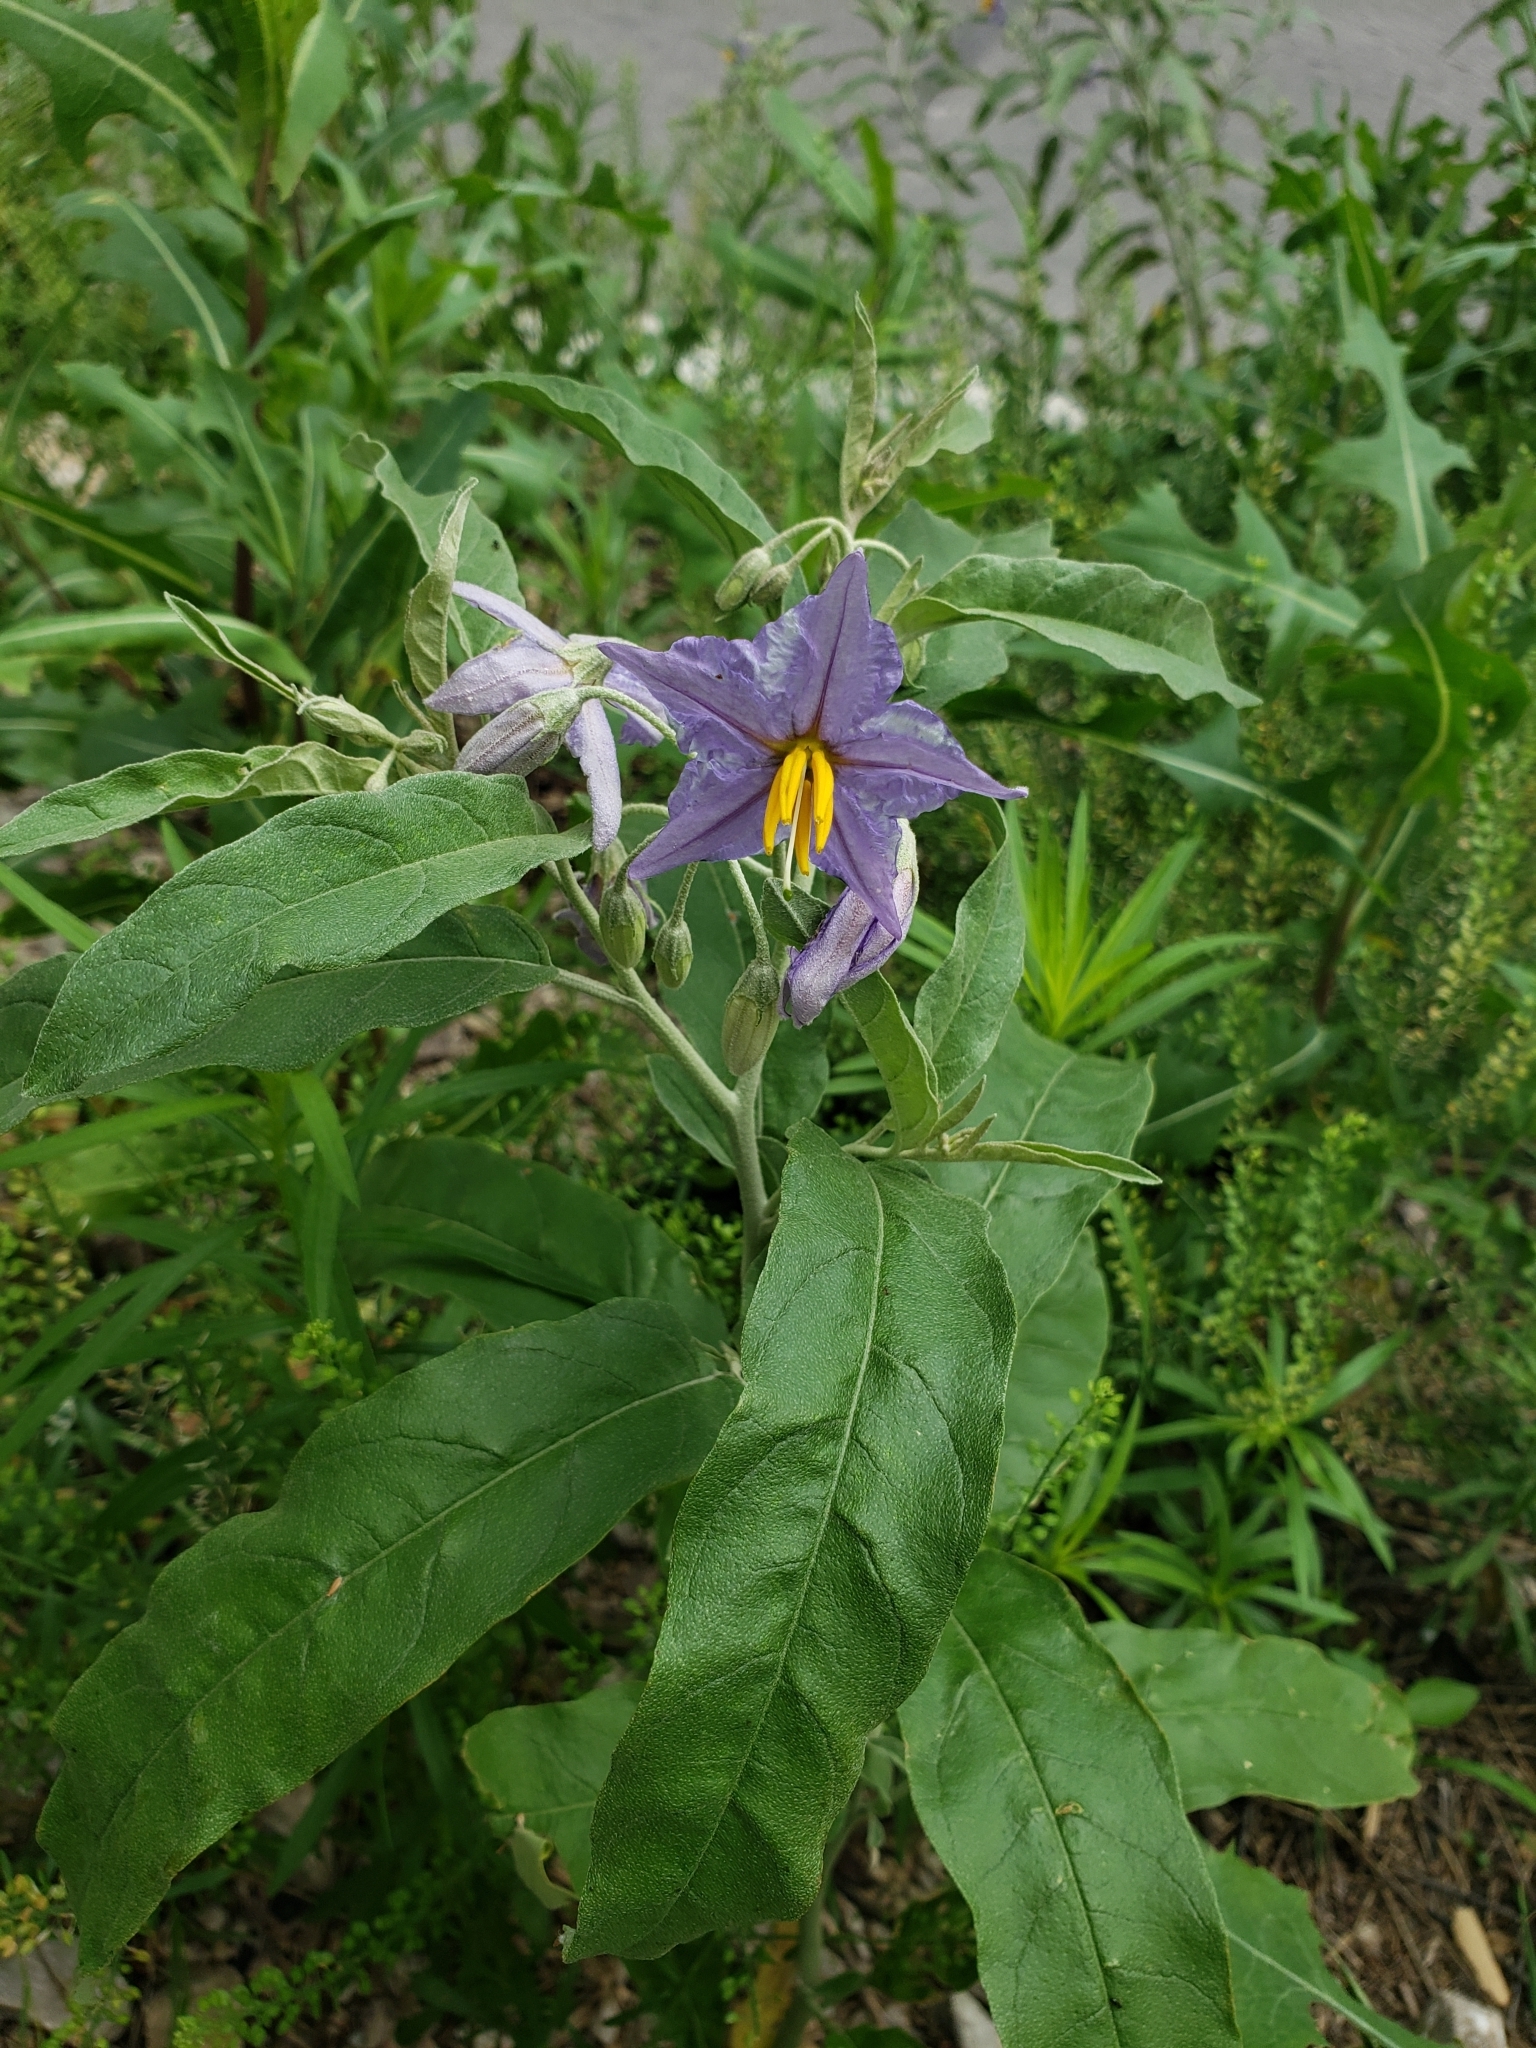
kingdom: Plantae
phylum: Tracheophyta
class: Magnoliopsida
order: Solanales
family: Solanaceae
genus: Solanum
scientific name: Solanum elaeagnifolium
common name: Silverleaf nightshade
